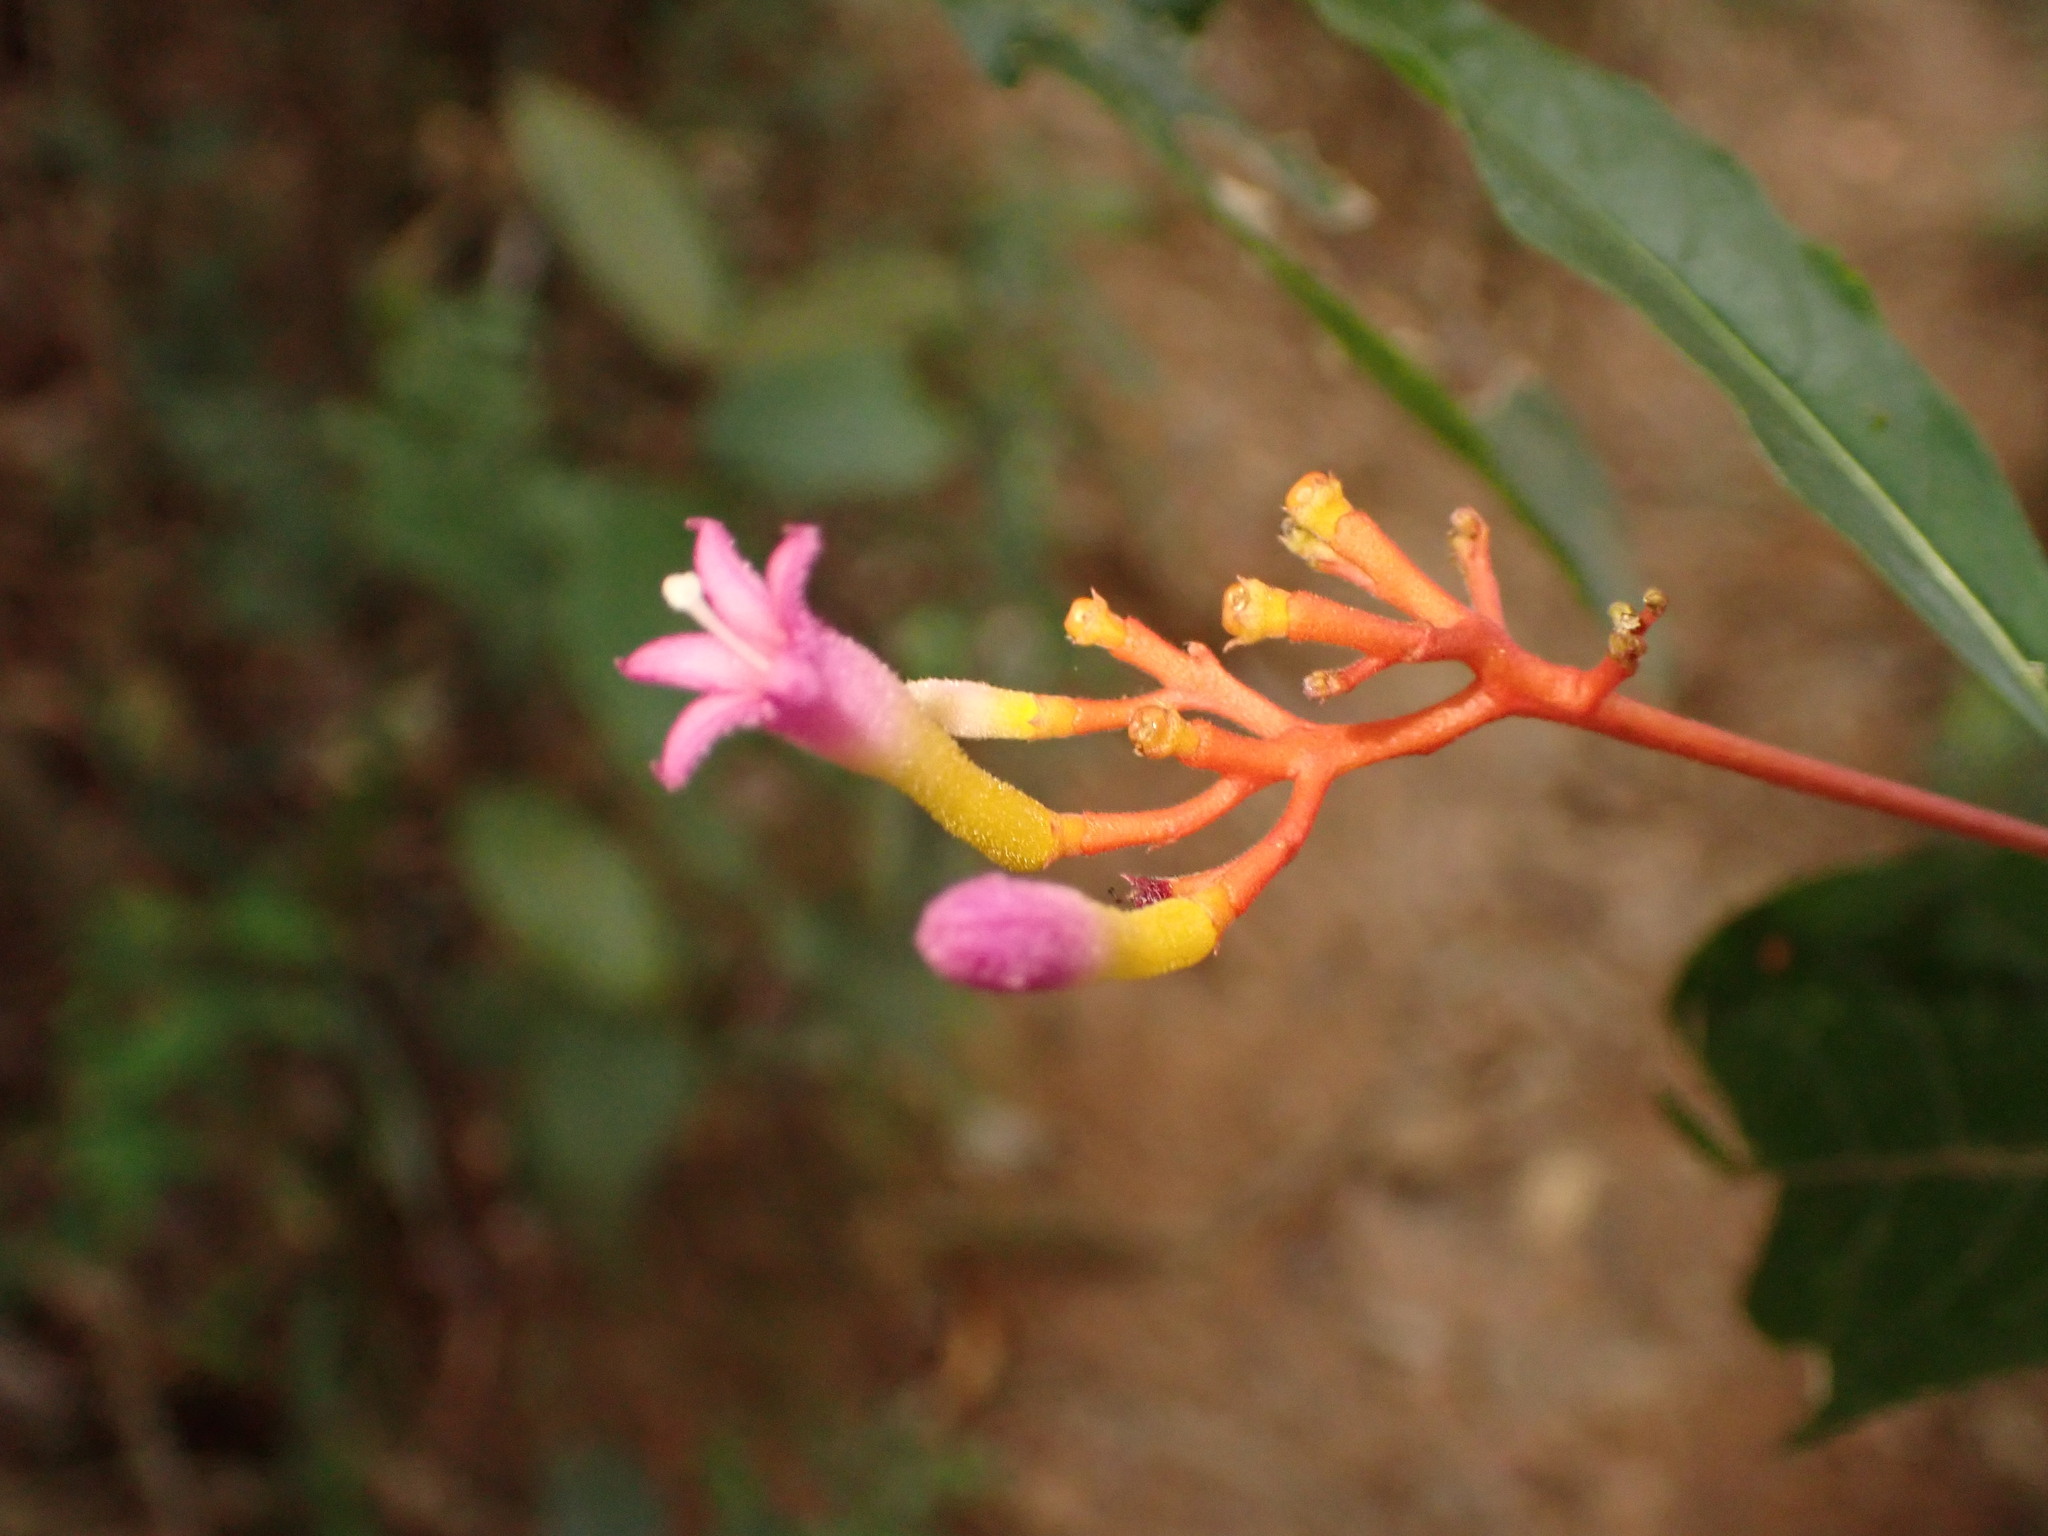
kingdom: Plantae
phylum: Tracheophyta
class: Magnoliopsida
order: Gentianales
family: Rubiaceae
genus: Palicourea
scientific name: Palicourea marcgravii
